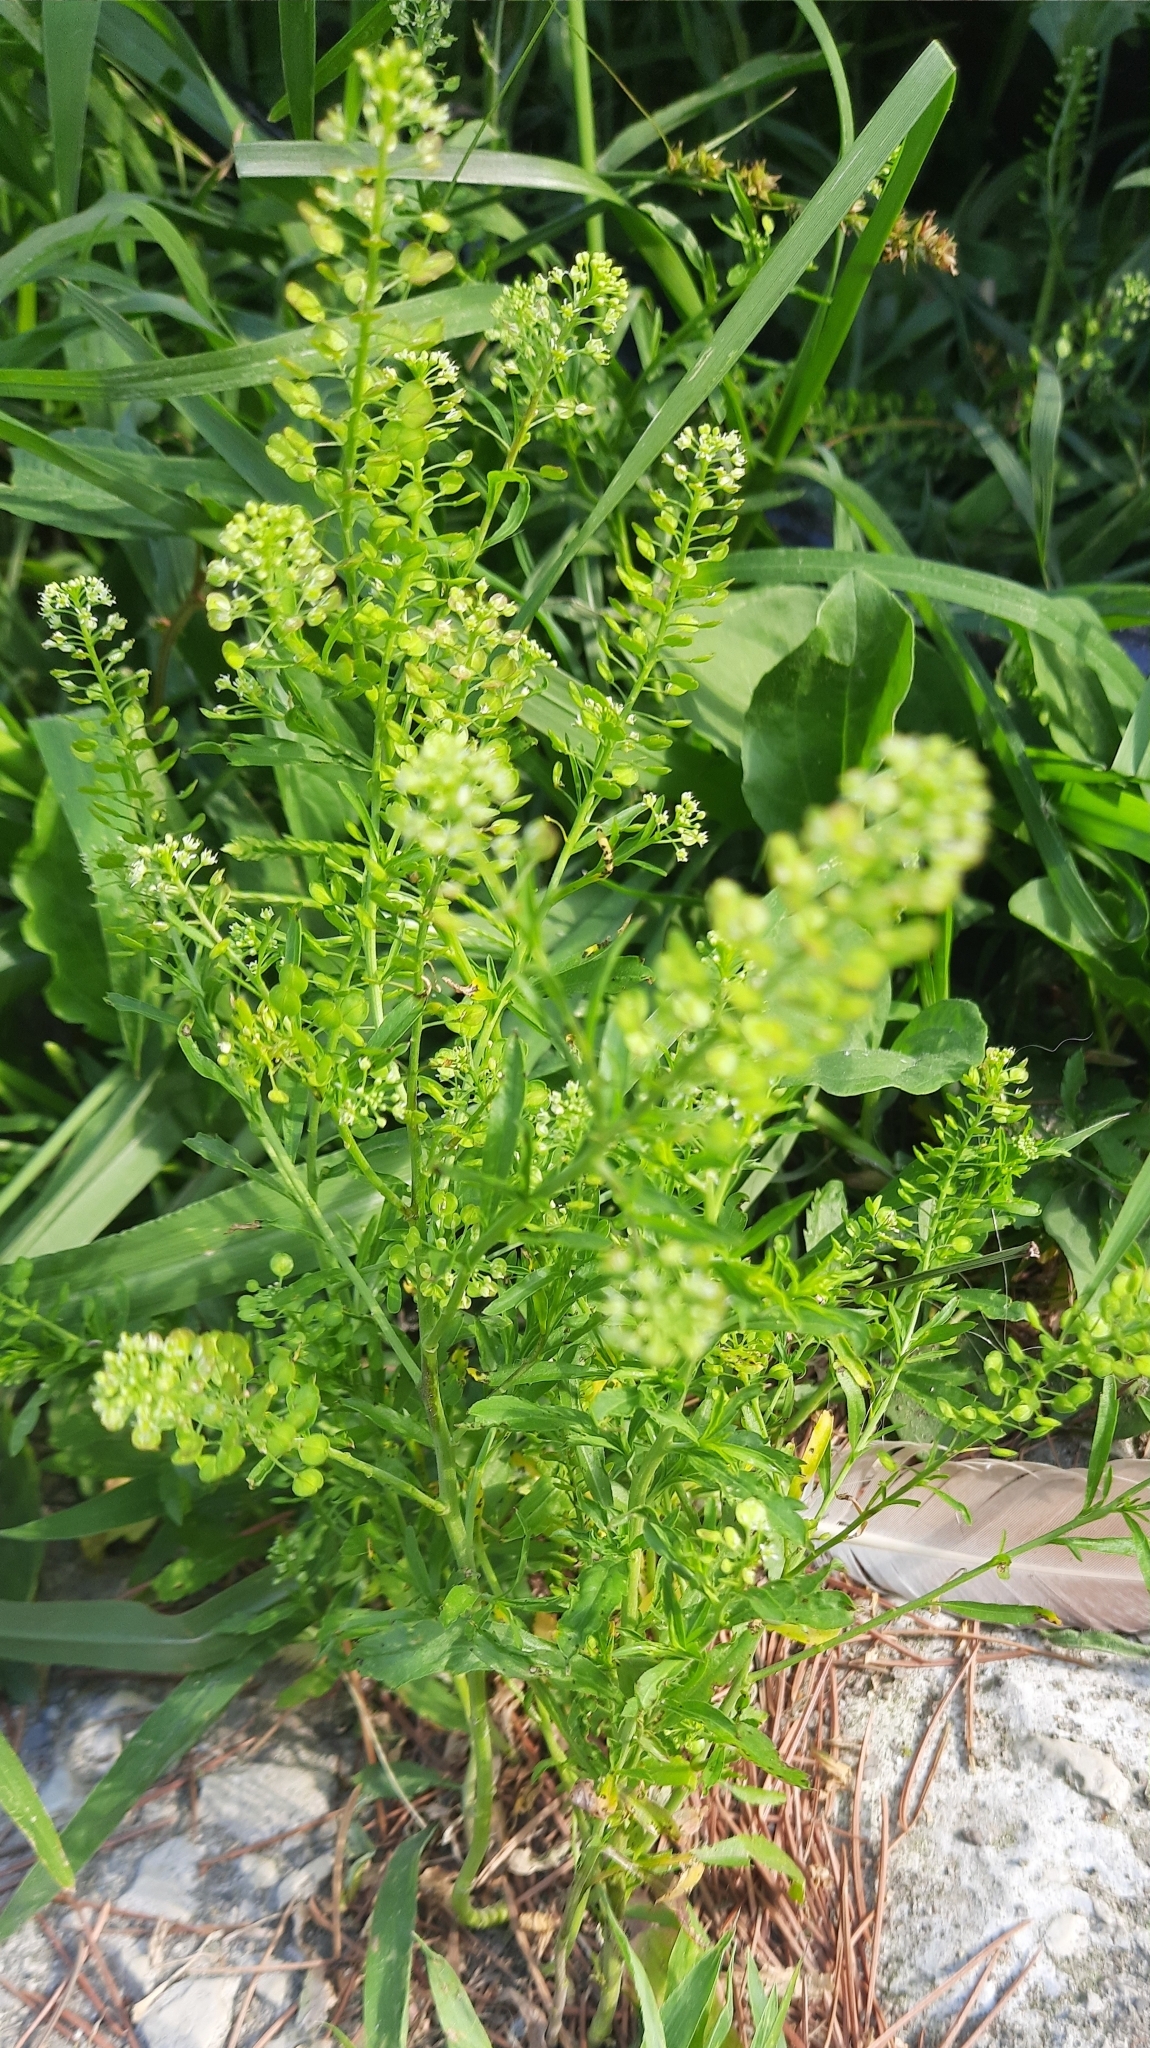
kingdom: Plantae
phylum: Tracheophyta
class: Magnoliopsida
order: Brassicales
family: Brassicaceae
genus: Lepidium
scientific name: Lepidium virginicum
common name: Least pepperwort
